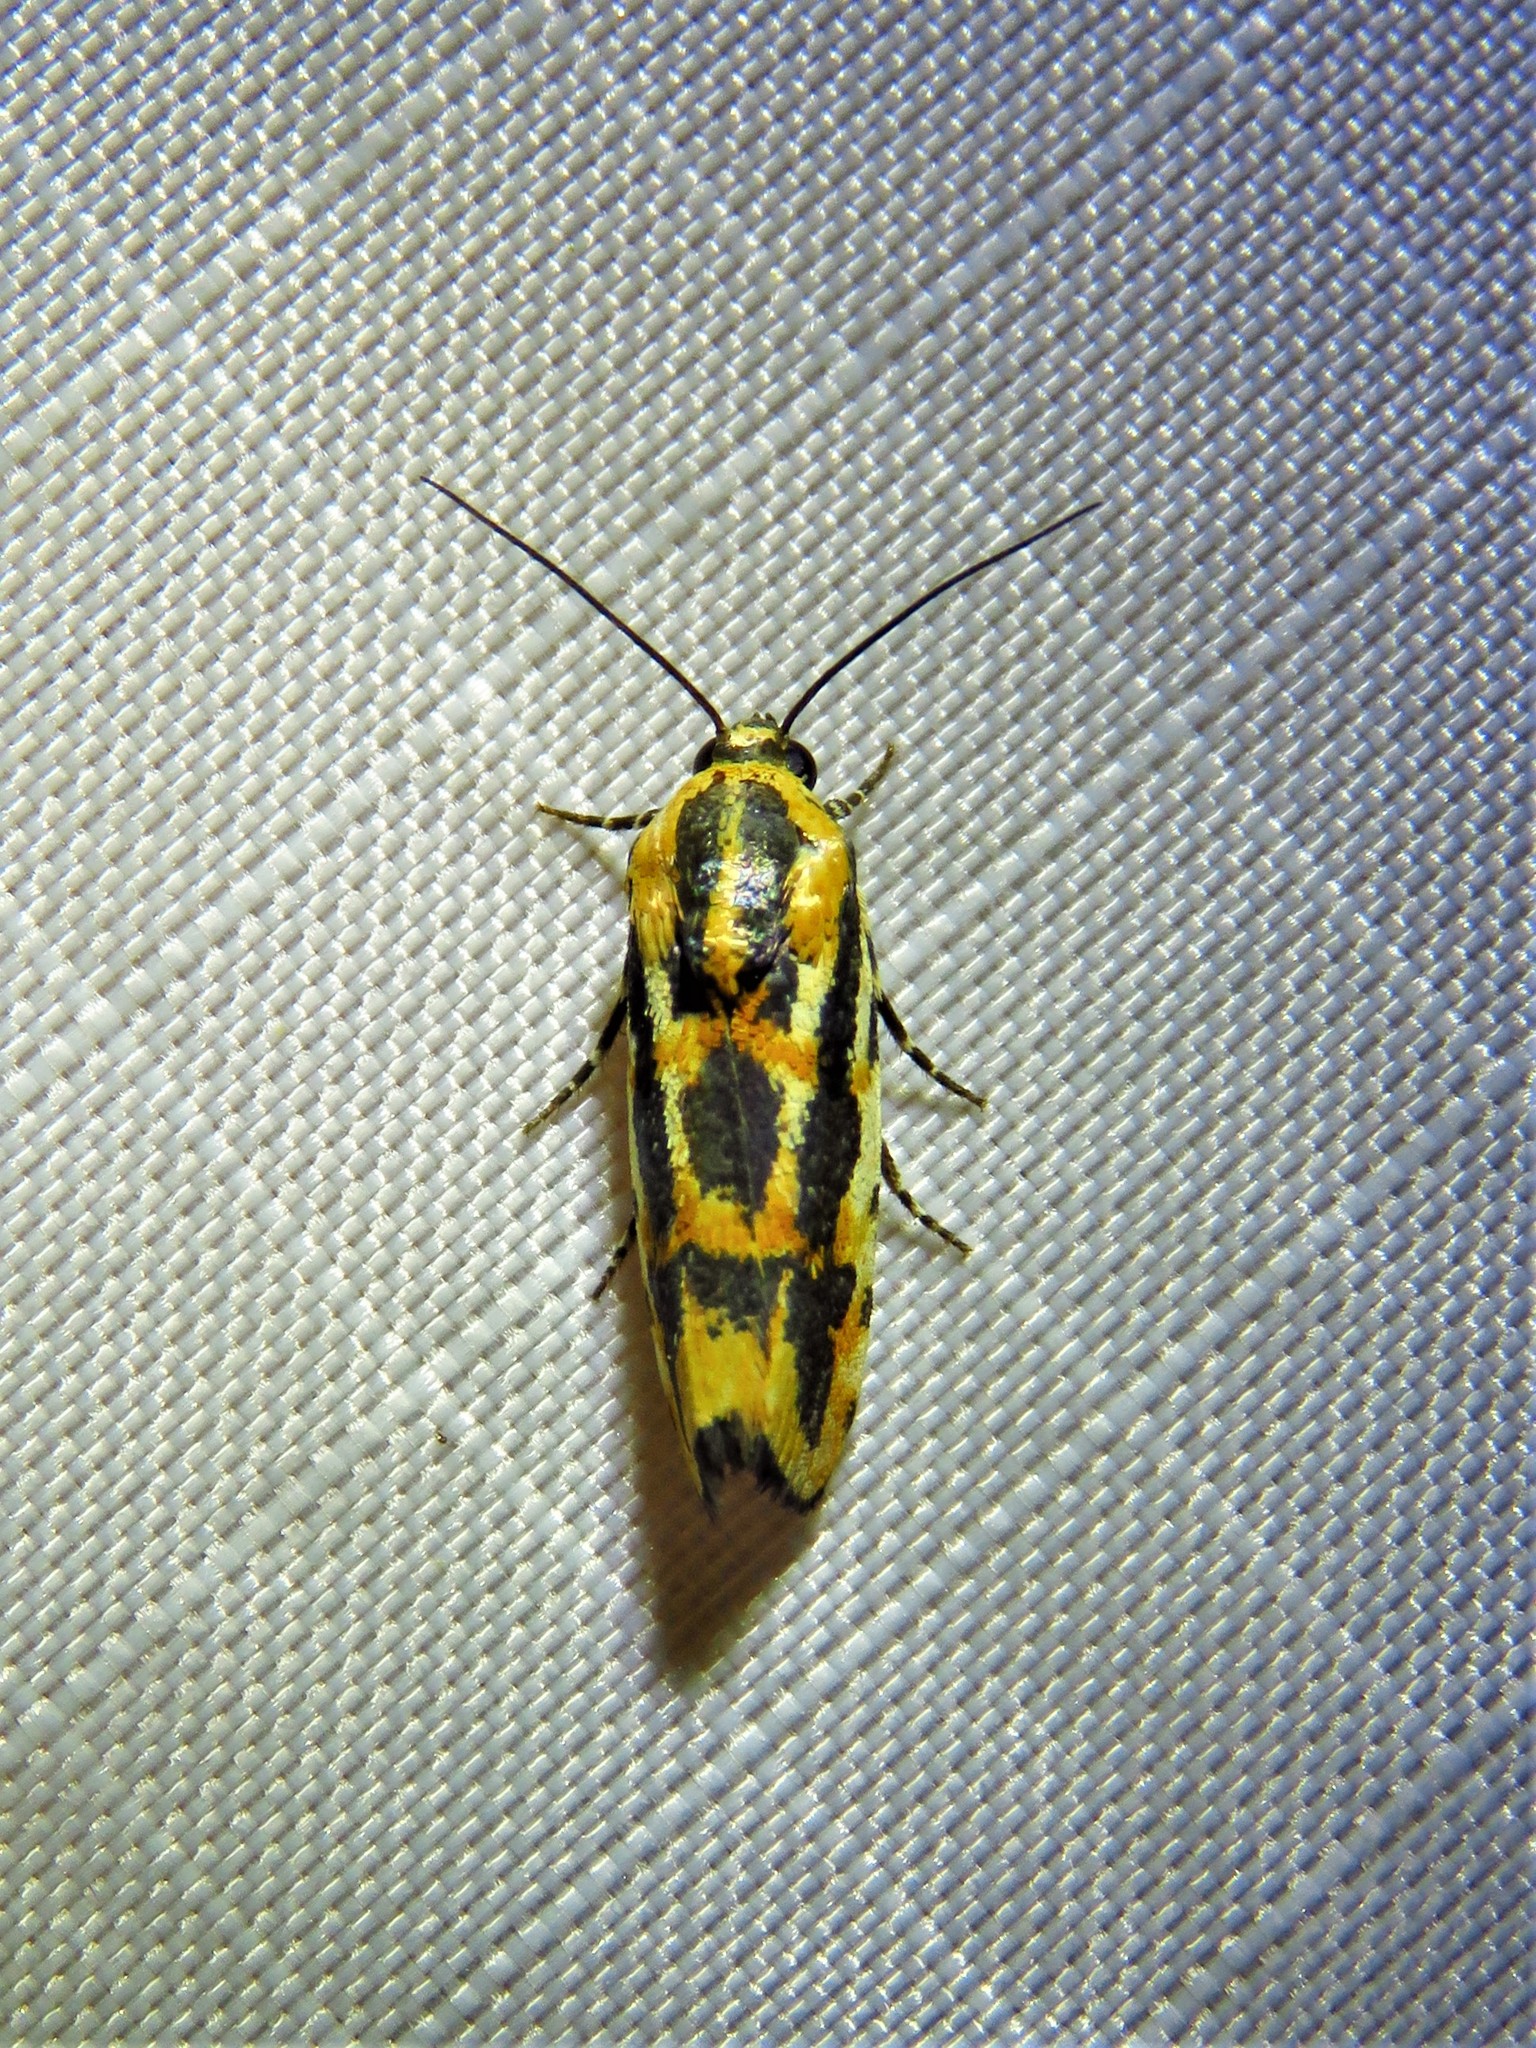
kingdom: Animalia
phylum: Arthropoda
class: Insecta
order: Lepidoptera
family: Noctuidae
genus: Acontia
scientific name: Acontia leo
